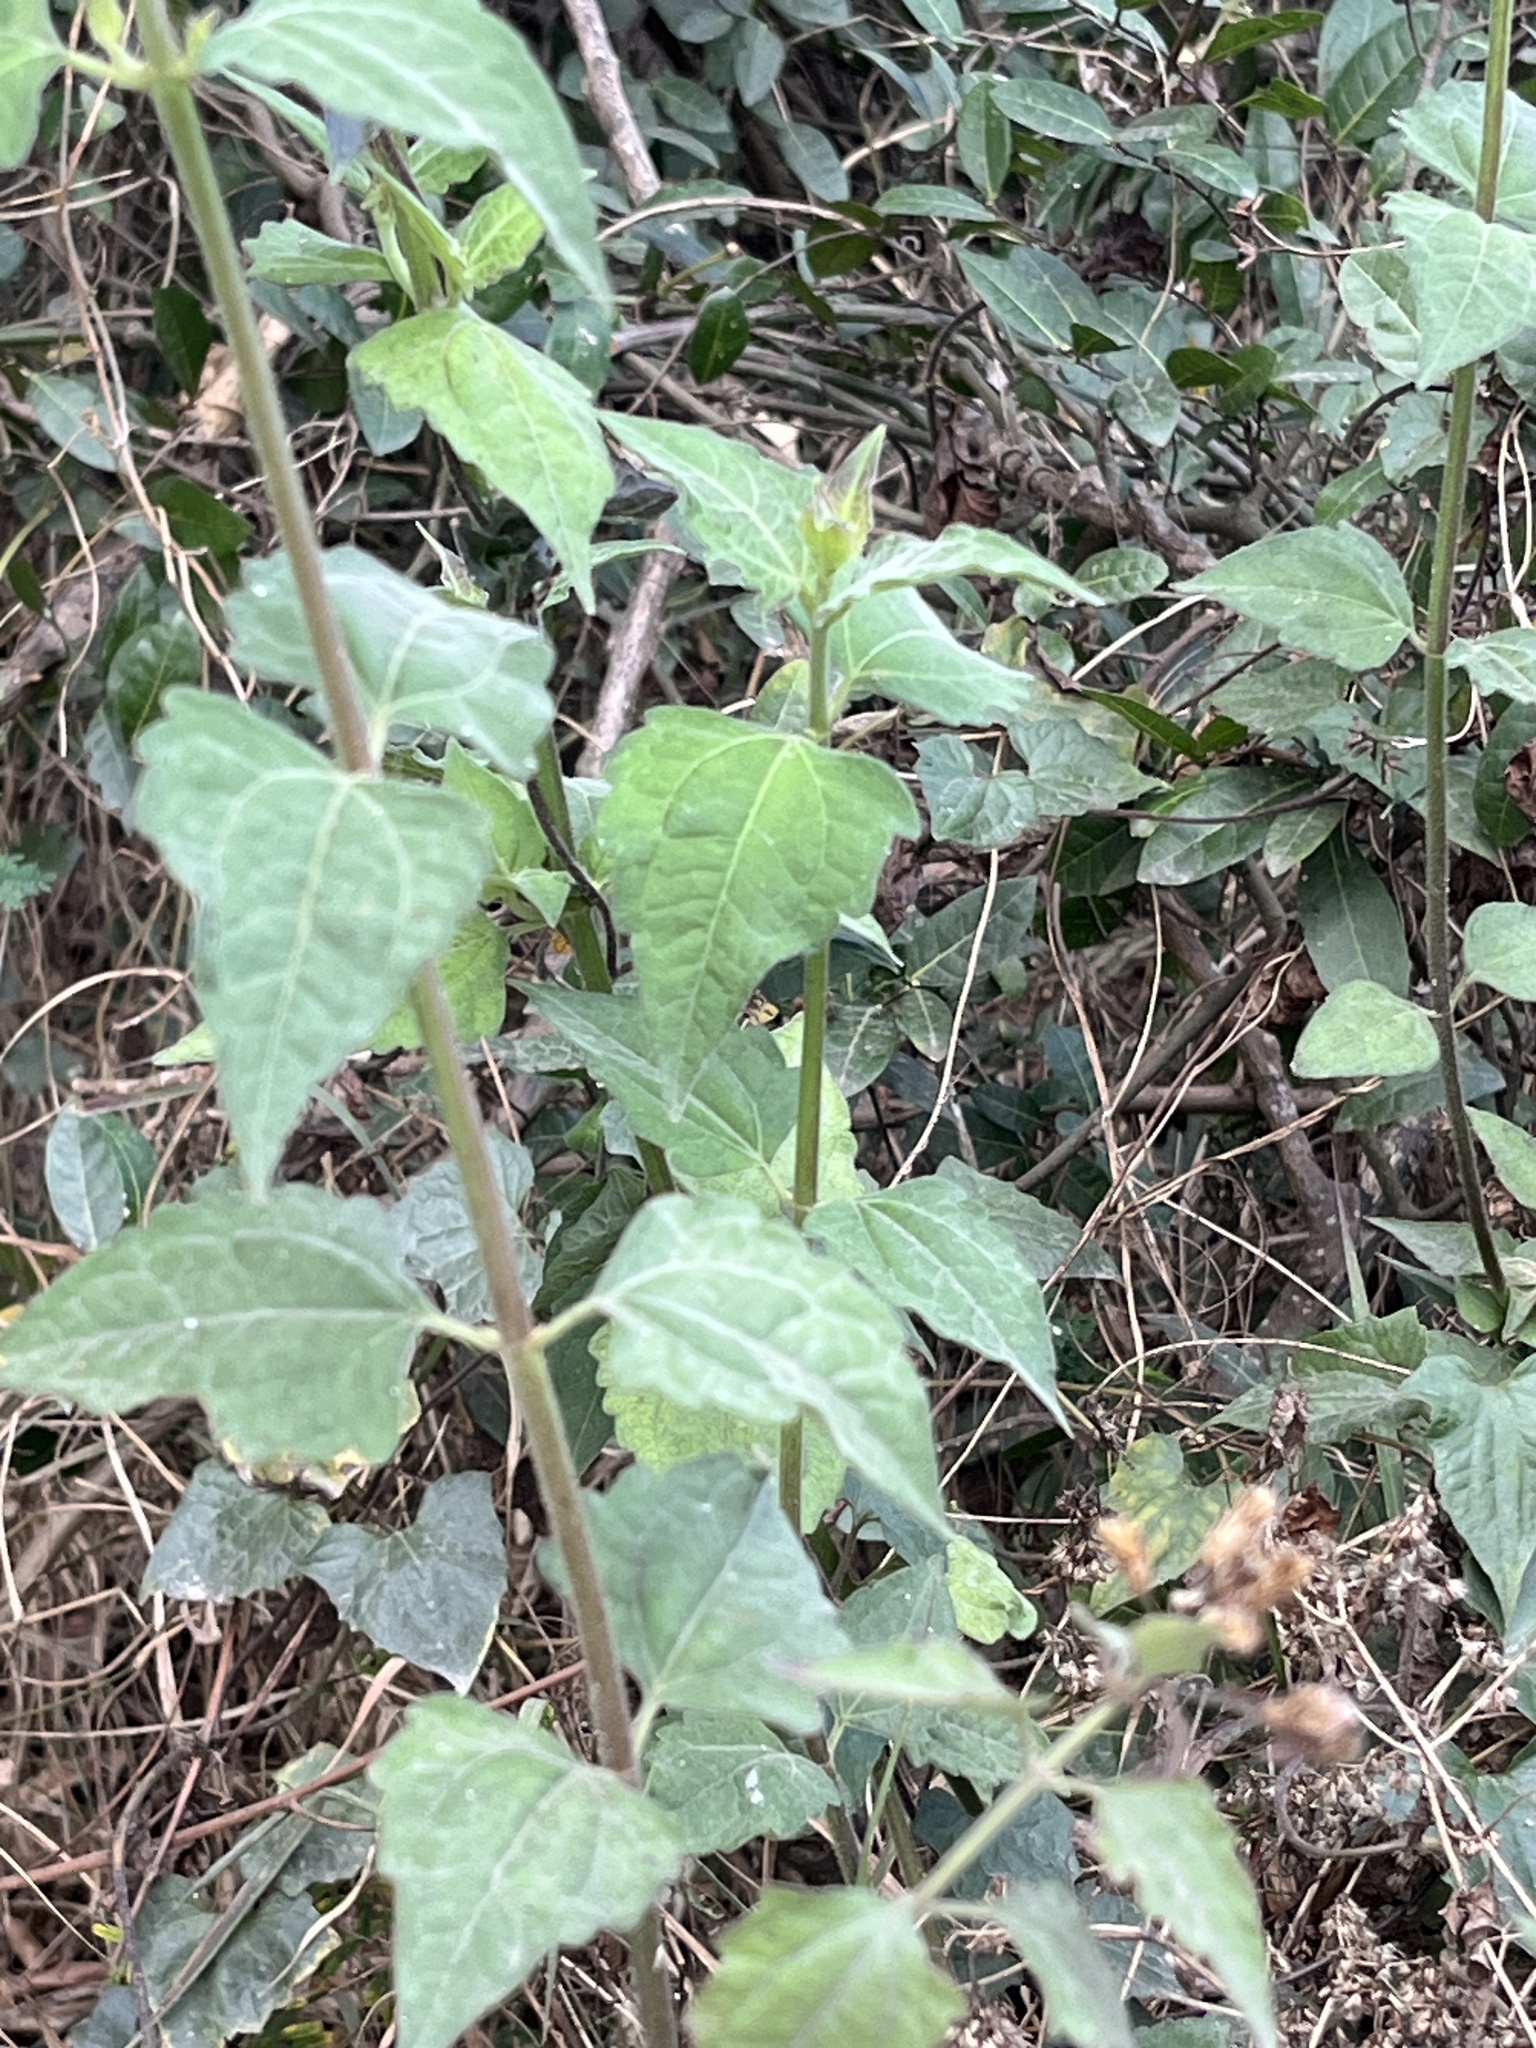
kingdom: Plantae
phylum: Tracheophyta
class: Magnoliopsida
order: Asterales
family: Asteraceae
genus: Chromolaena
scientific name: Chromolaena odorata
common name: Siamweed
